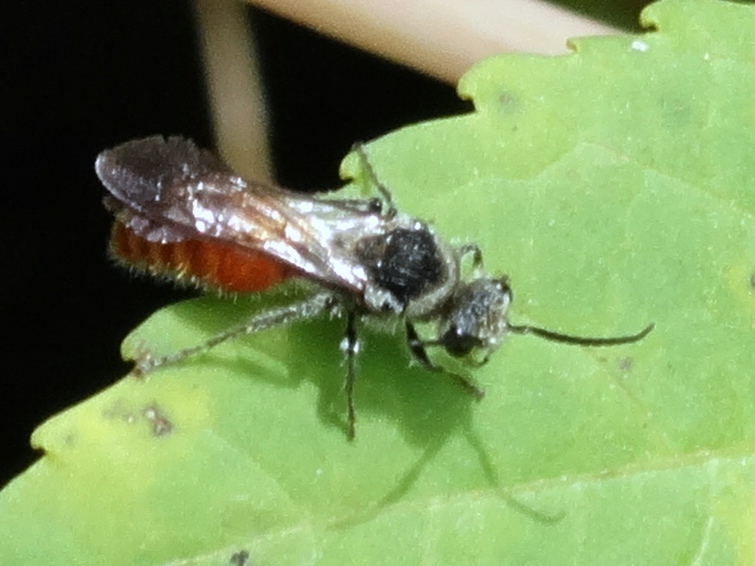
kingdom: Animalia
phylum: Arthropoda
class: Insecta
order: Hymenoptera
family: Mutillidae
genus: Timulla
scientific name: Timulla
